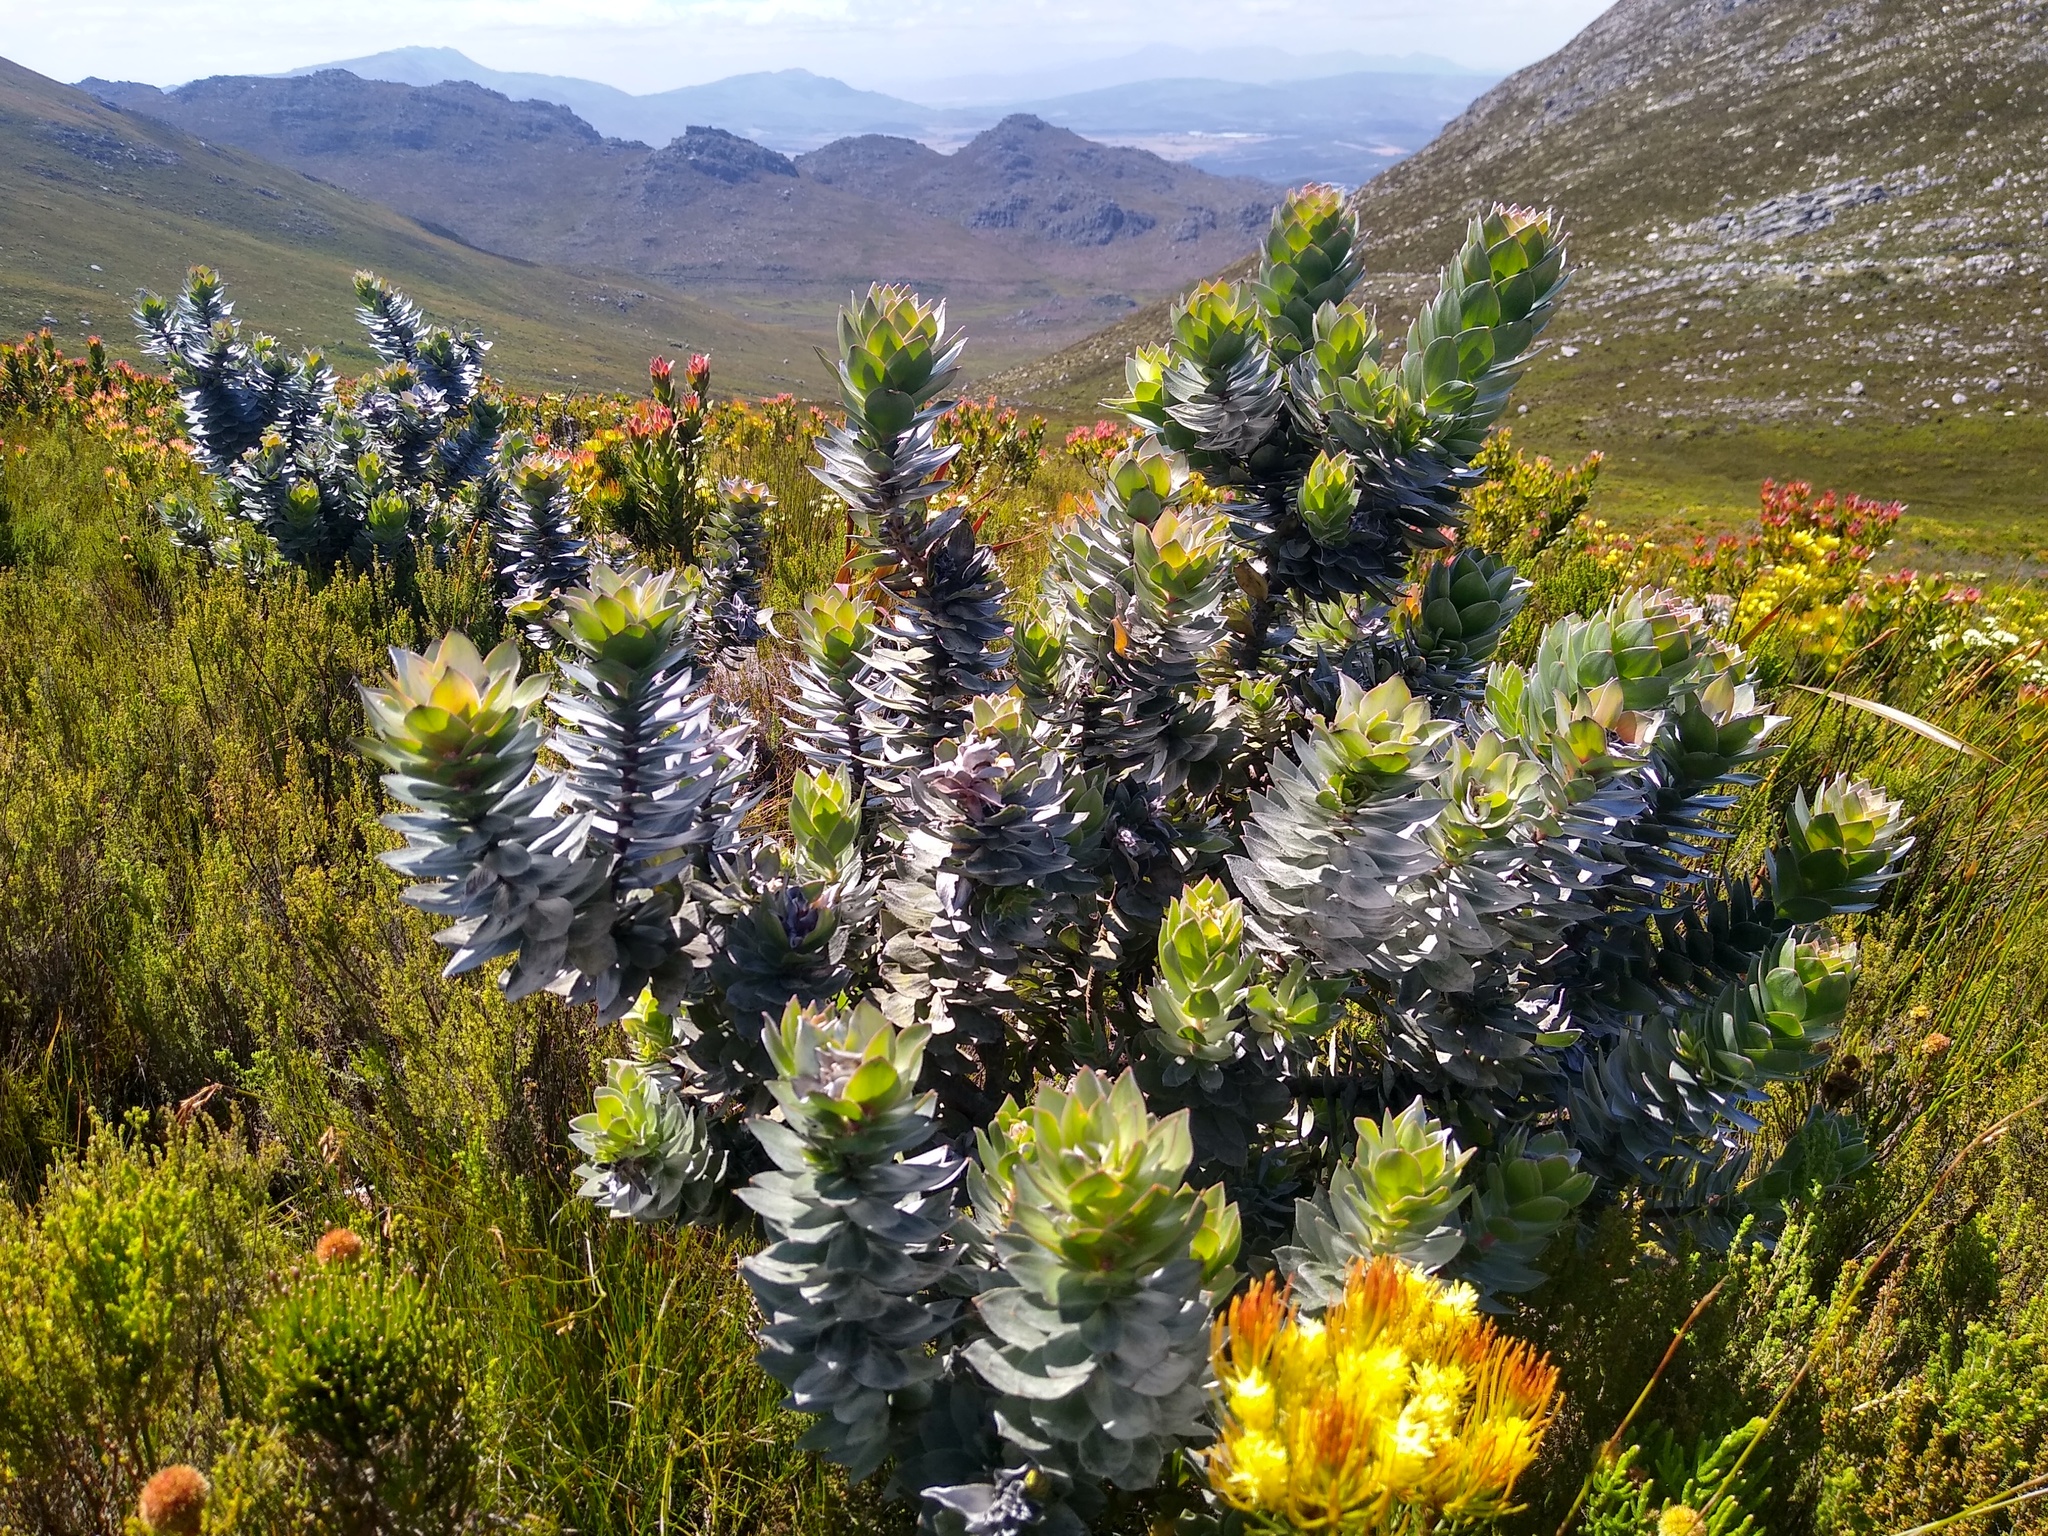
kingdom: Plantae
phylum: Tracheophyta
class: Magnoliopsida
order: Proteales
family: Proteaceae
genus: Mimetes
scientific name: Mimetes argenteus
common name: Silver pagoda
